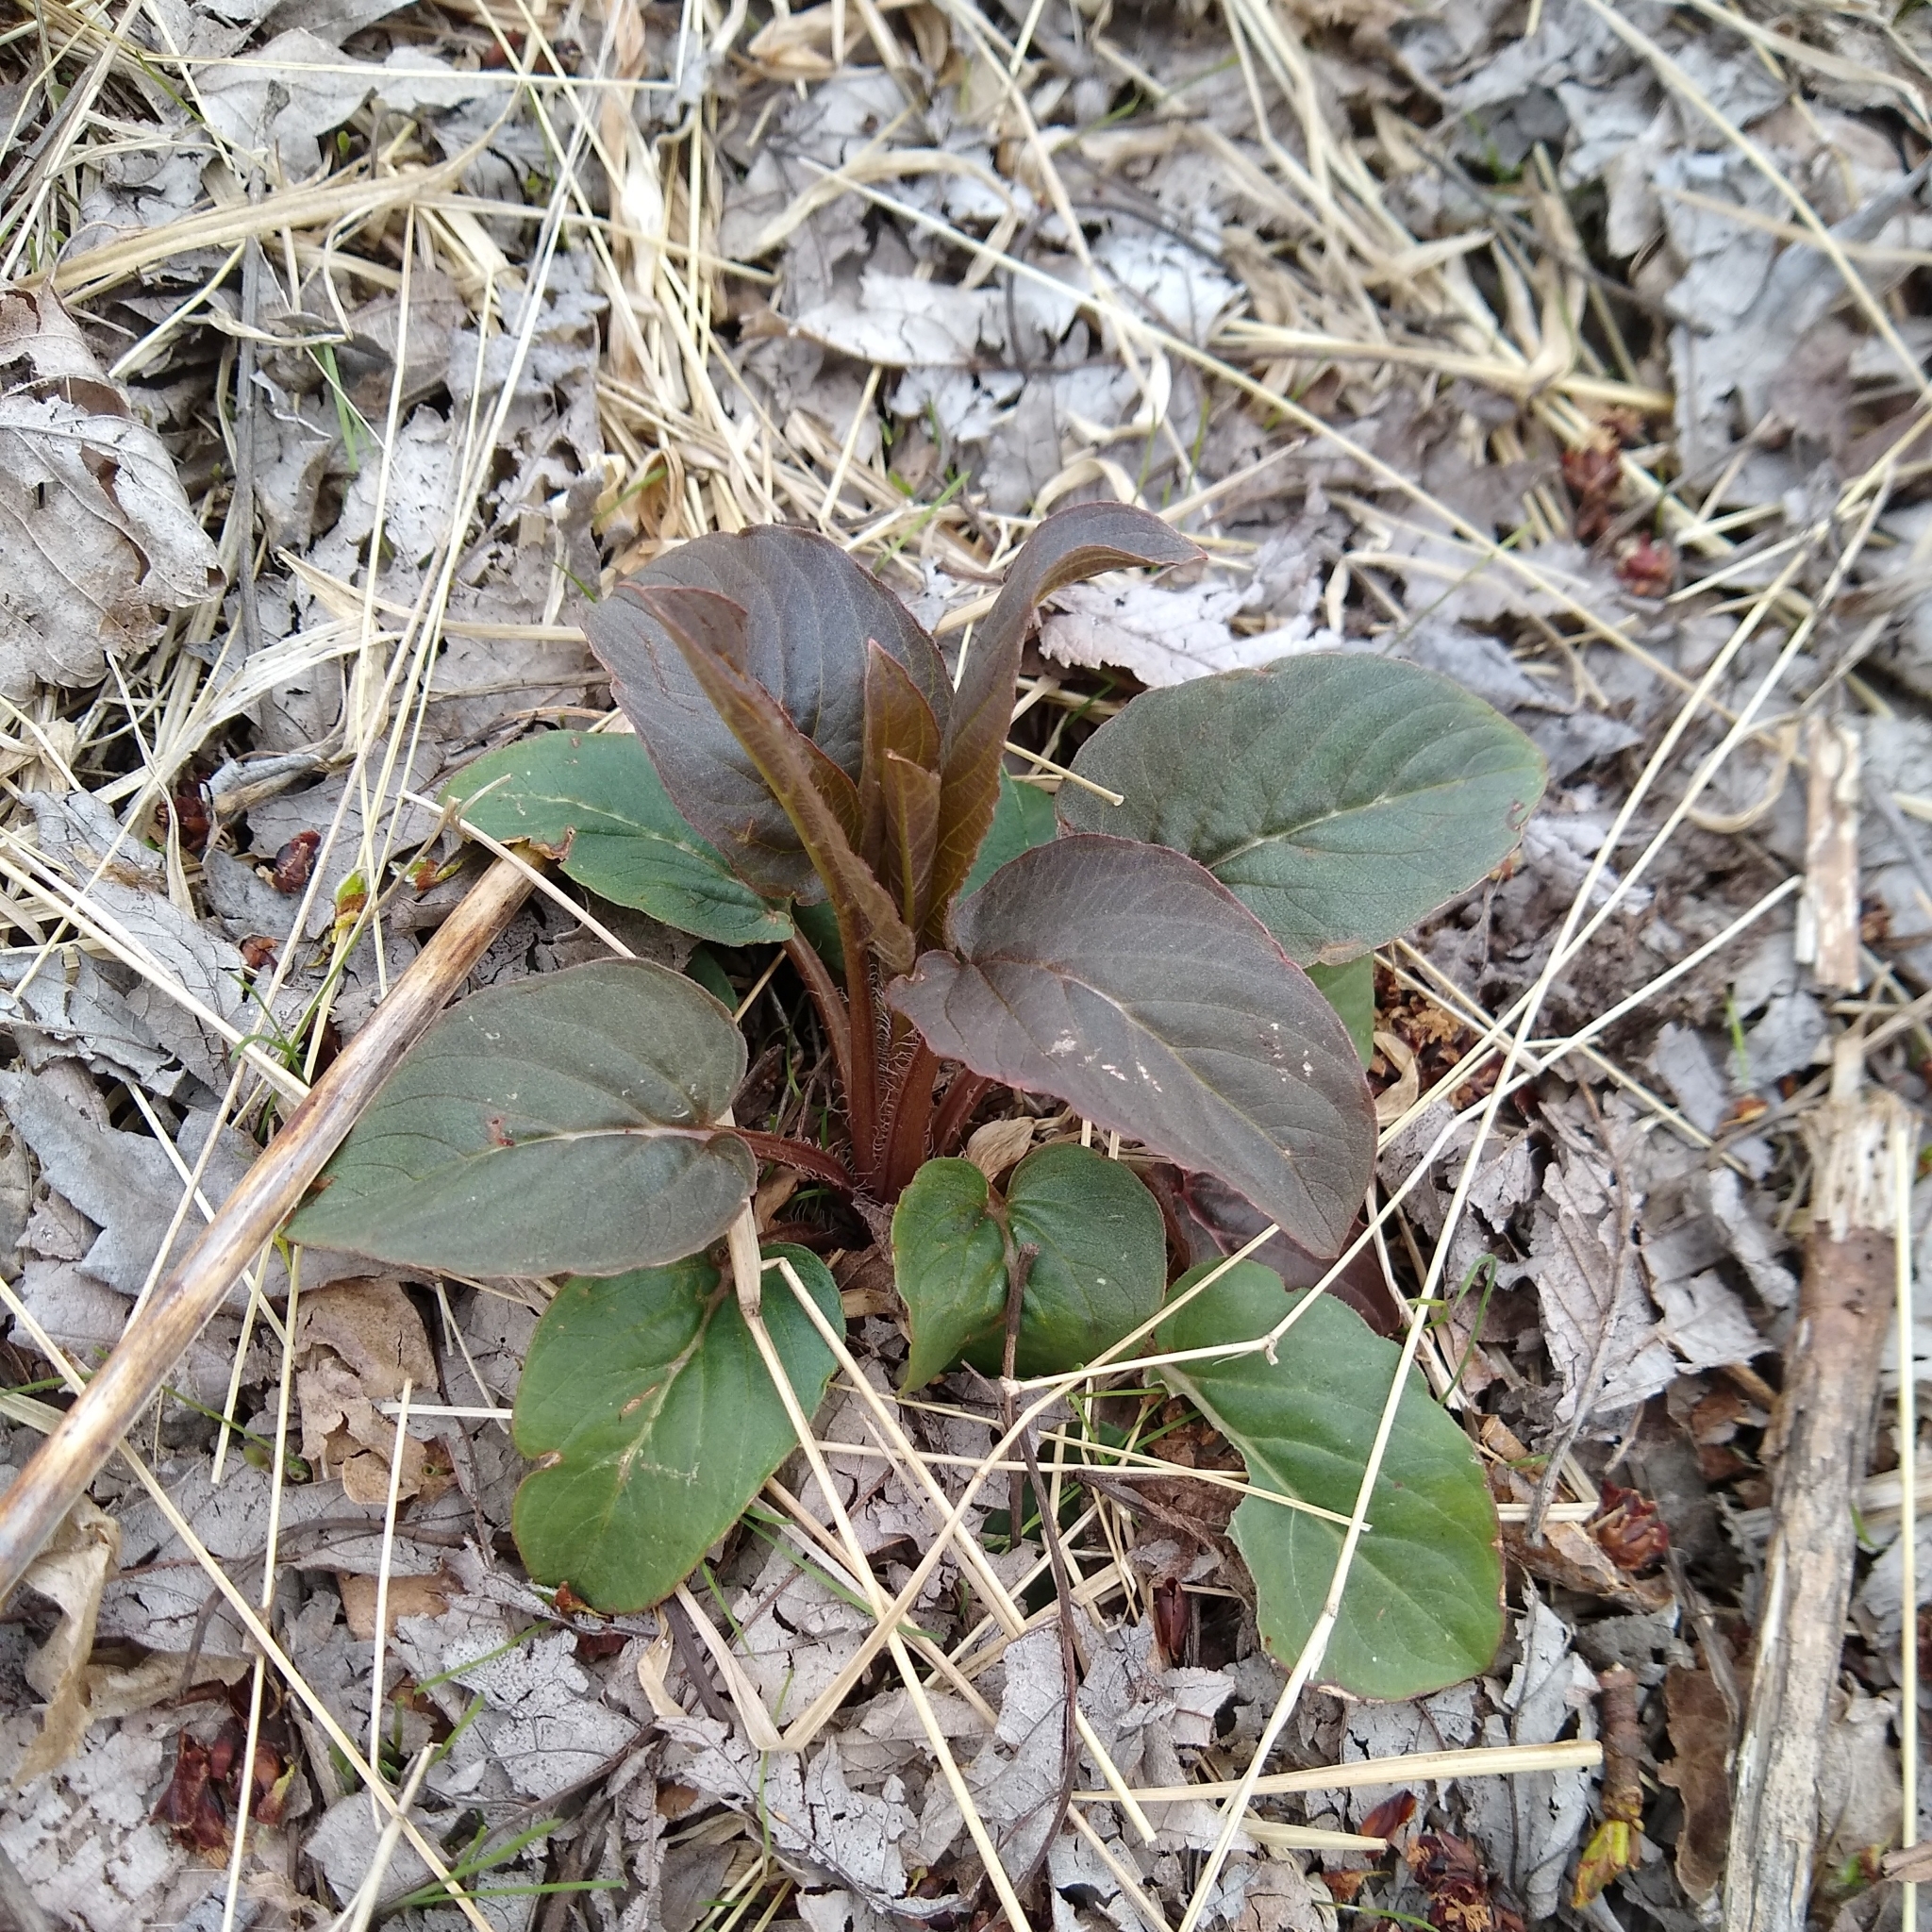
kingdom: Plantae
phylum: Tracheophyta
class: Magnoliopsida
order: Ericales
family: Primulaceae
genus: Lysimachia
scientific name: Lysimachia ciliata
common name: Fringed loosestrife
